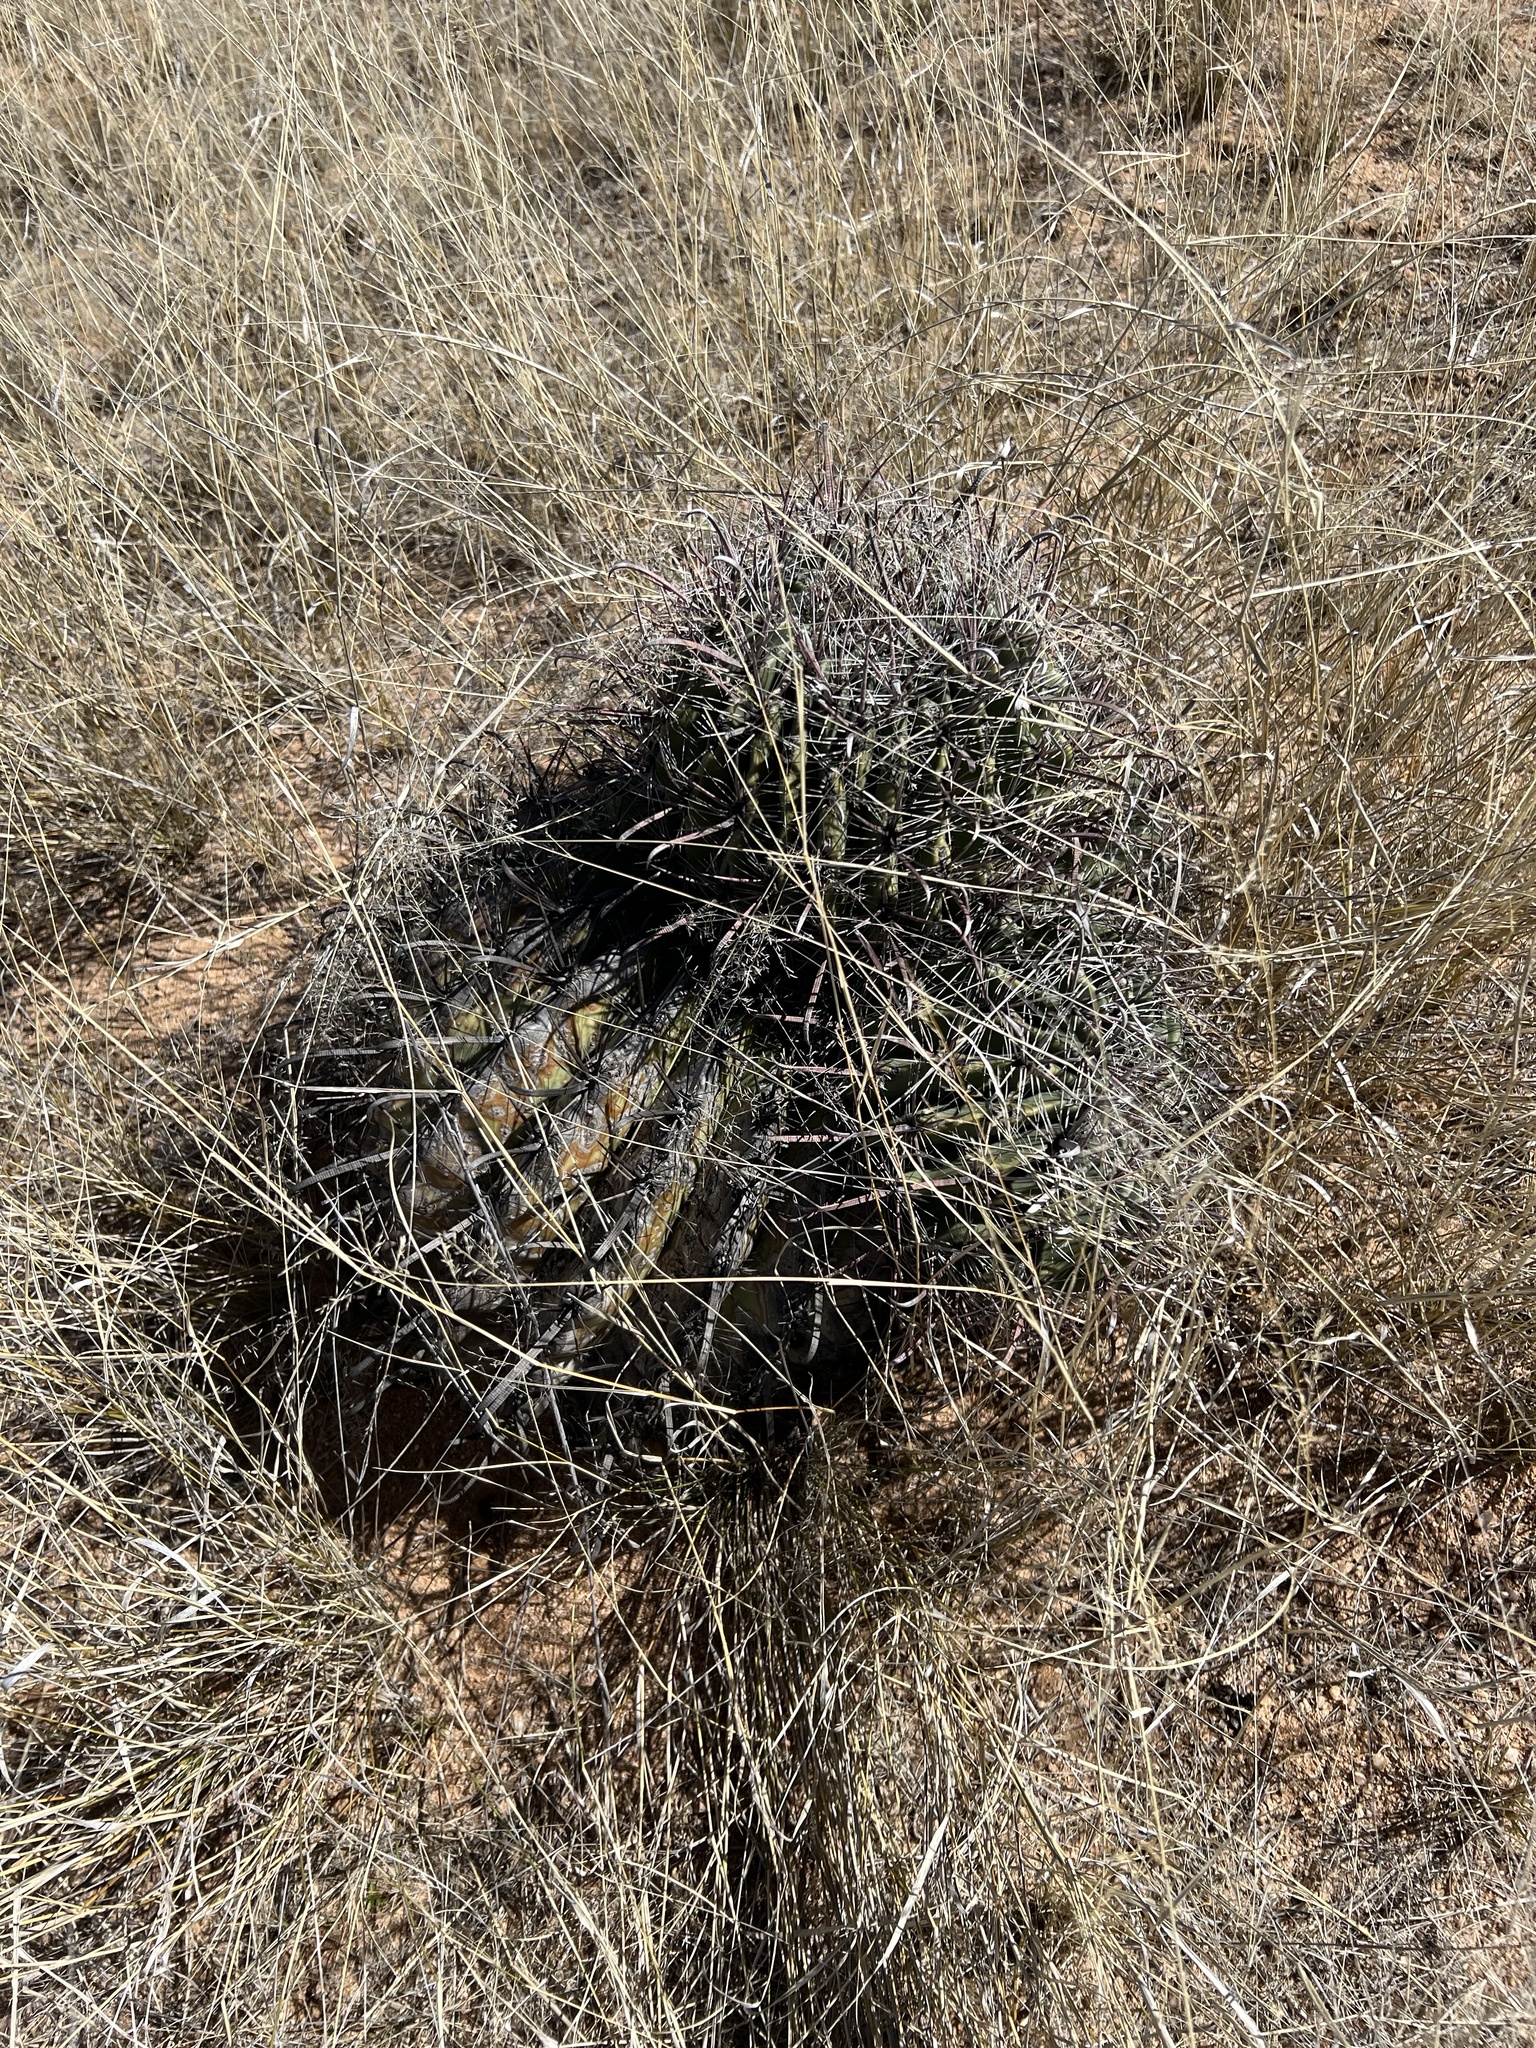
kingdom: Plantae
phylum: Tracheophyta
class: Magnoliopsida
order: Caryophyllales
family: Cactaceae
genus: Ferocactus
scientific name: Ferocactus wislizeni
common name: Candy barrel cactus
